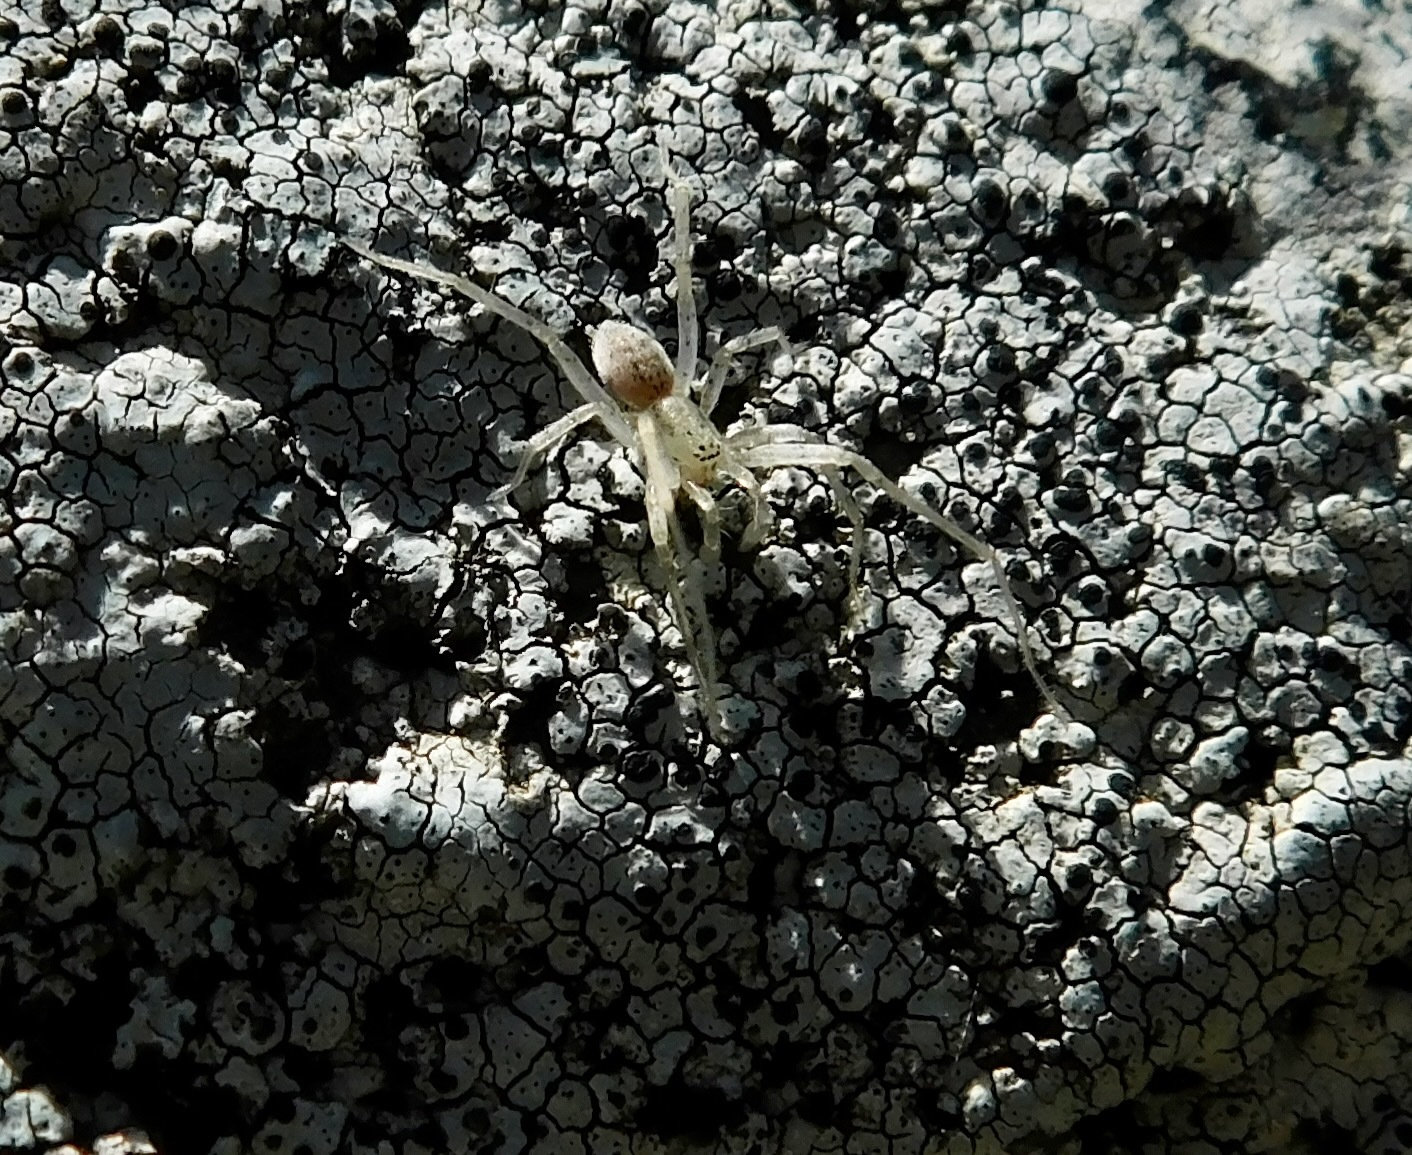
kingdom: Animalia
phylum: Arthropoda
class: Arachnida
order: Araneae
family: Anyphaenidae
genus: Hibana
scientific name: Hibana gracilis
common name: Garden ghost spider
